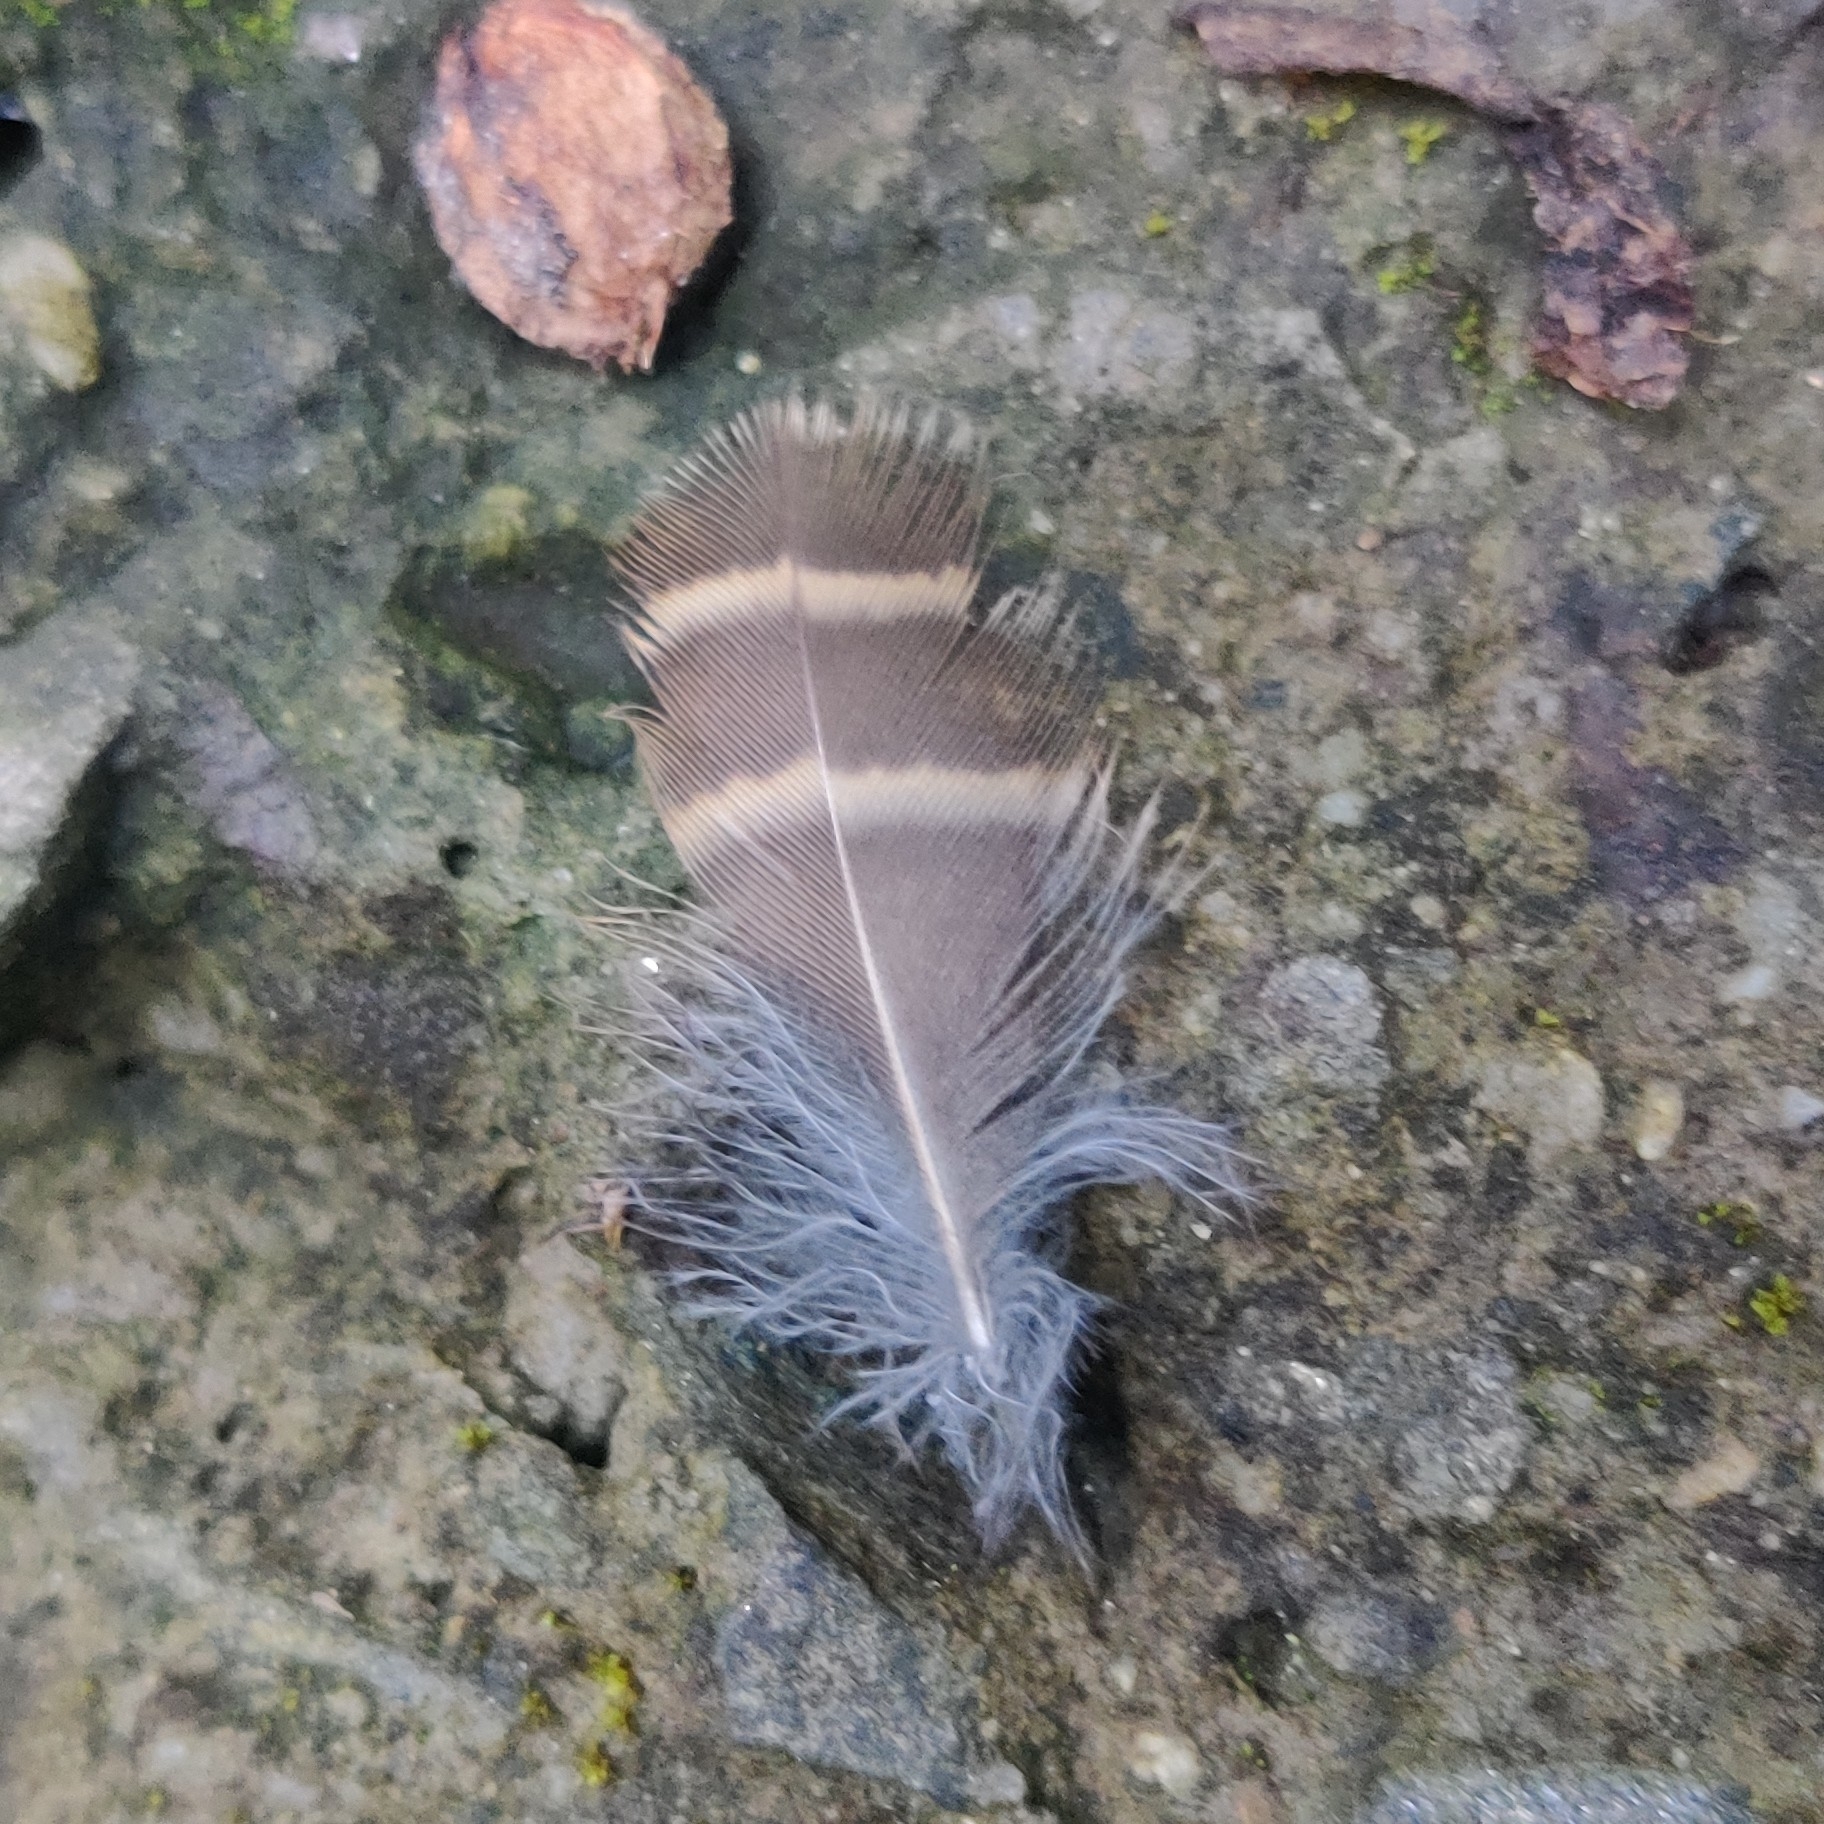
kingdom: Animalia
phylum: Chordata
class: Aves
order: Strigiformes
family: Strigidae
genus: Glaucidium
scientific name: Glaucidium cuculoides
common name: Asian barred owlet
